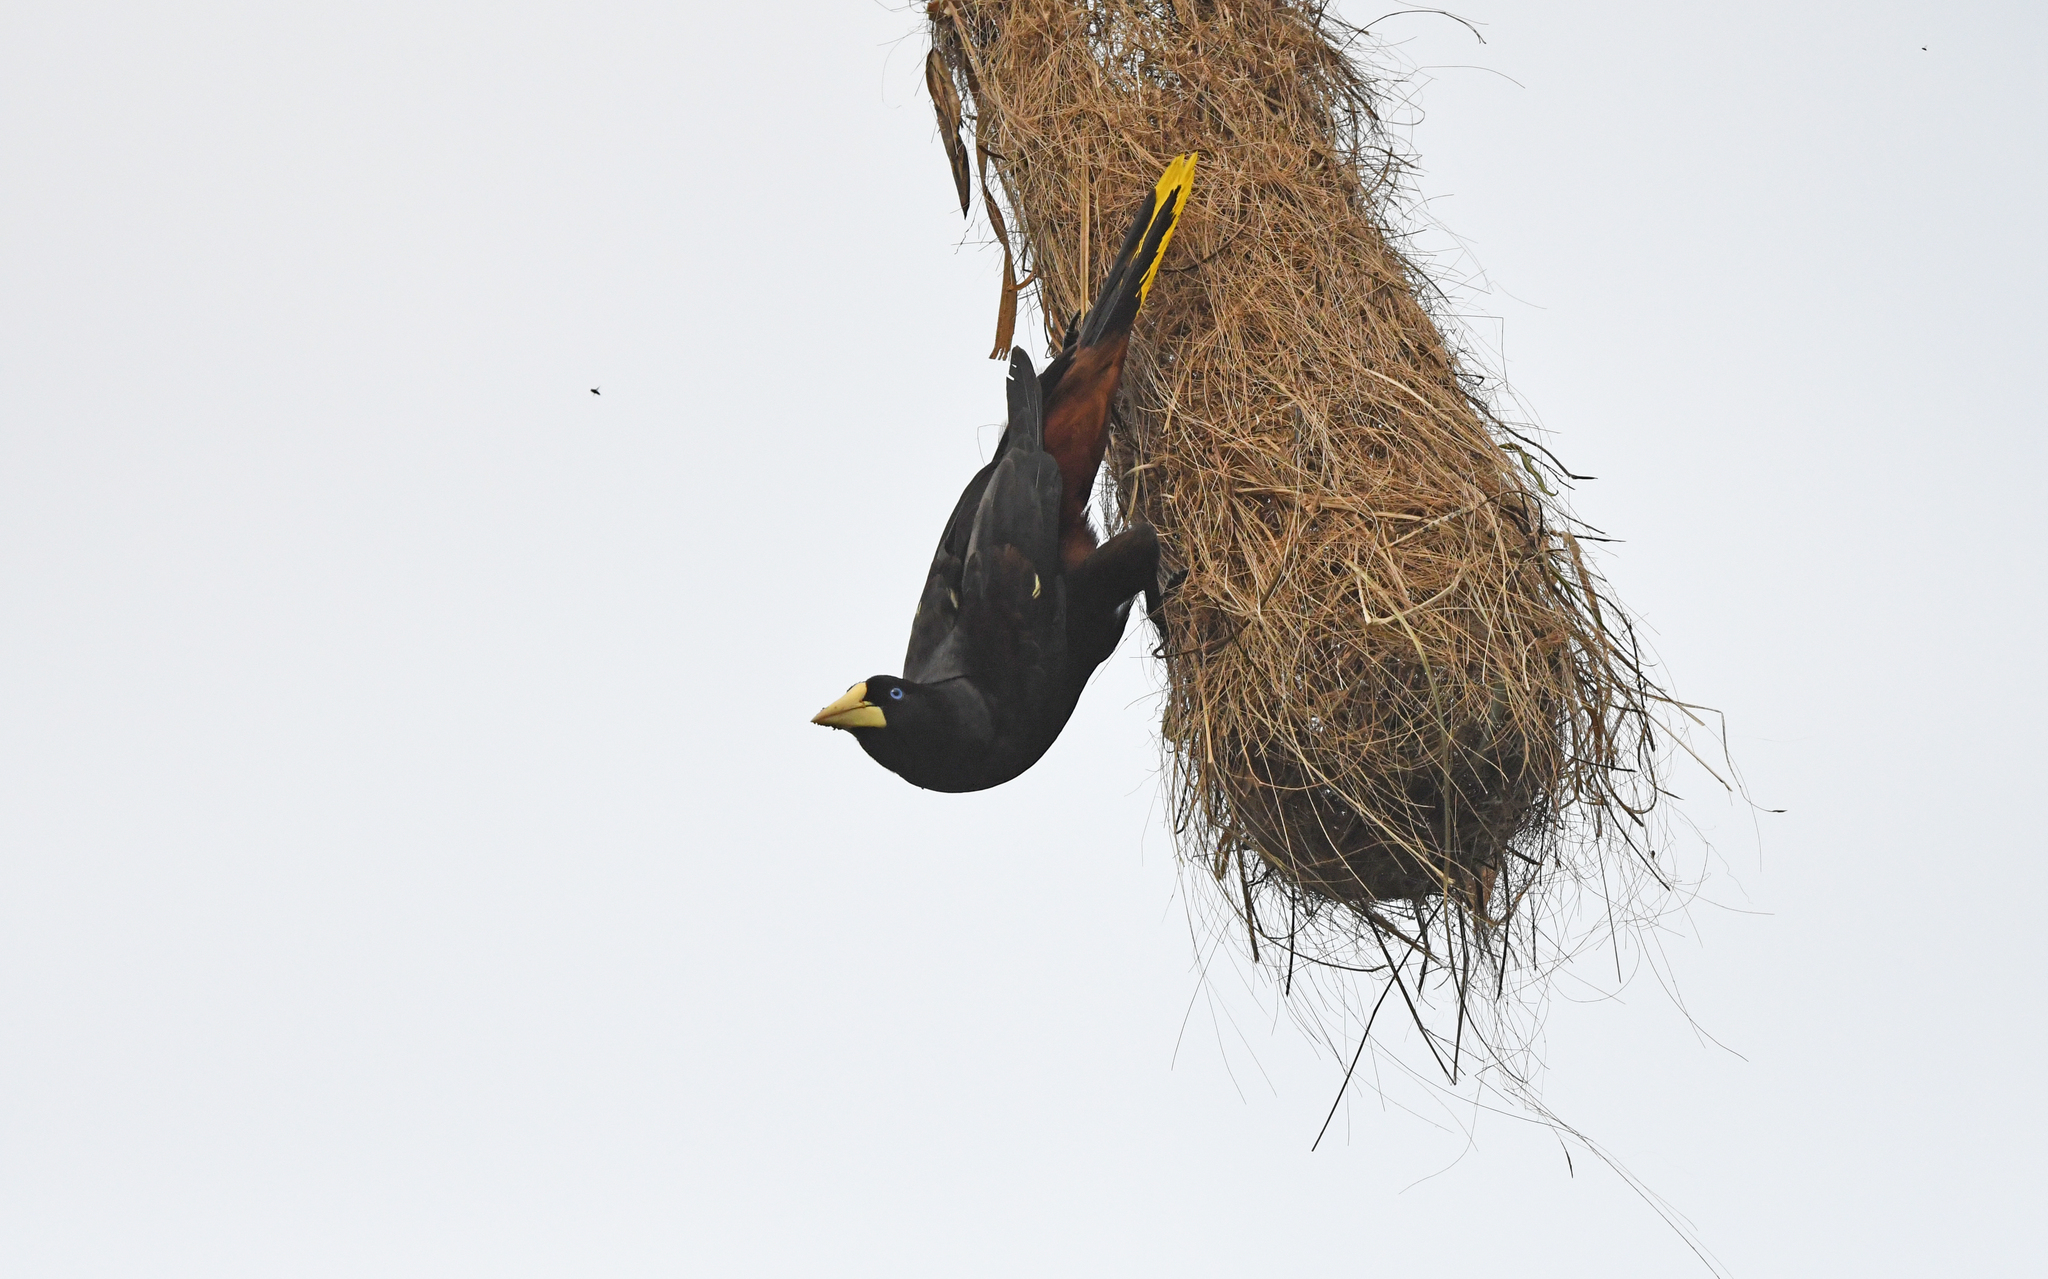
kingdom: Animalia
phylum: Chordata
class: Aves
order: Passeriformes
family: Icteridae
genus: Psarocolius
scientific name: Psarocolius decumanus
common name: Crested oropendola
